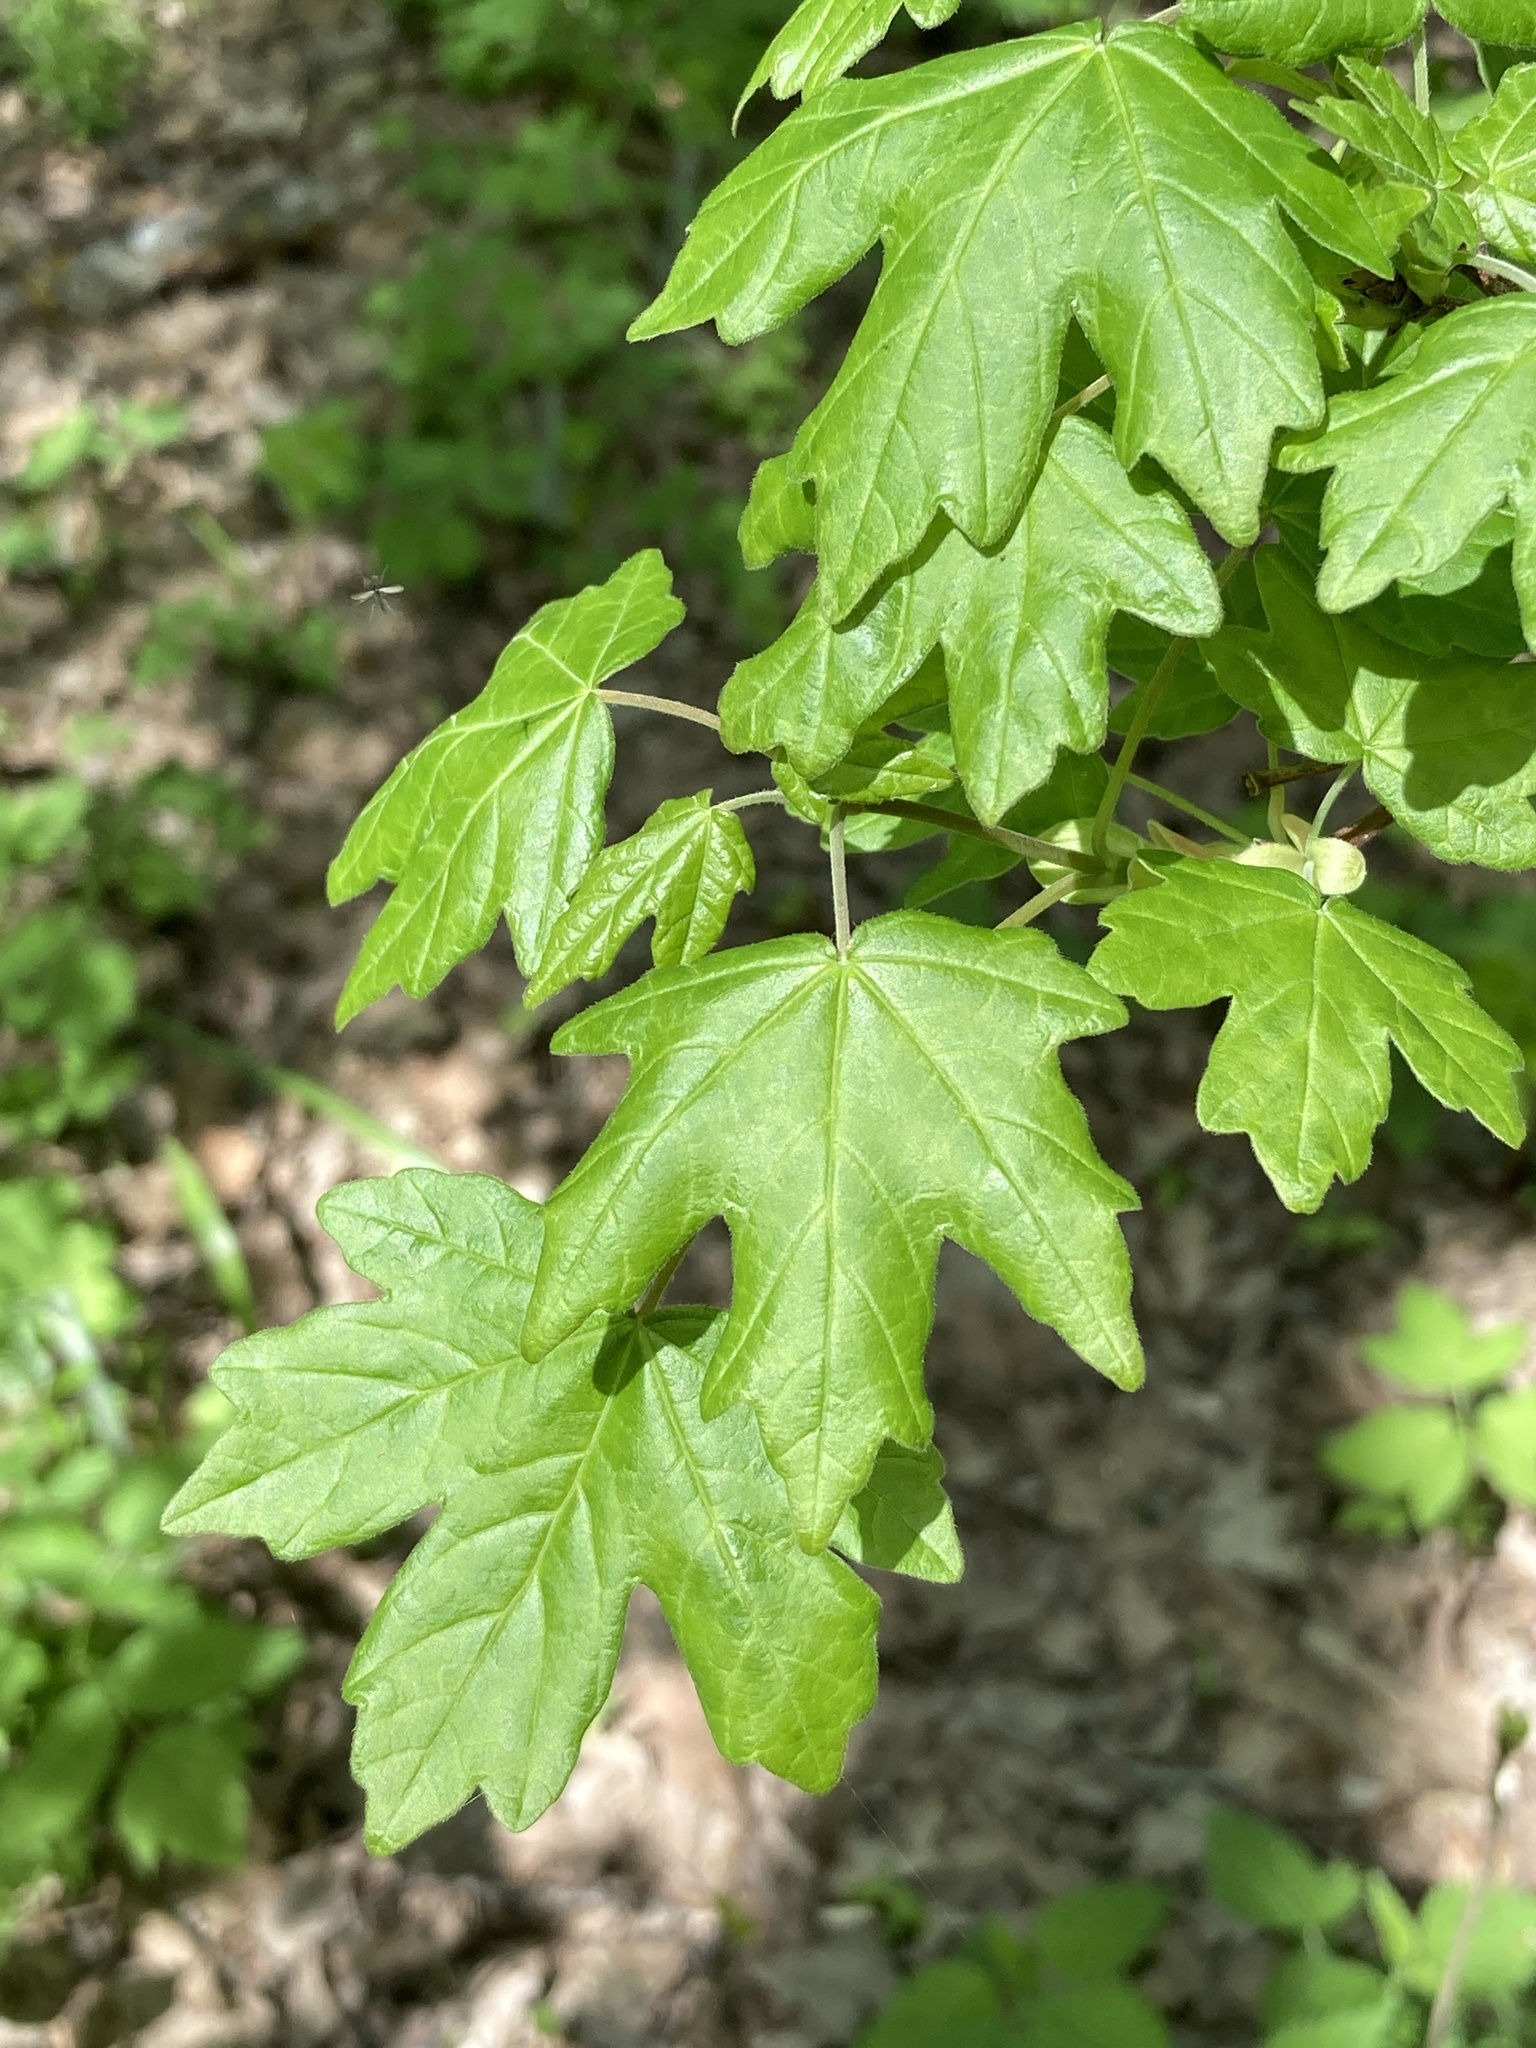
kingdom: Plantae
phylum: Tracheophyta
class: Magnoliopsida
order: Sapindales
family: Sapindaceae
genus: Acer
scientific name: Acer campestre
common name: Field maple
